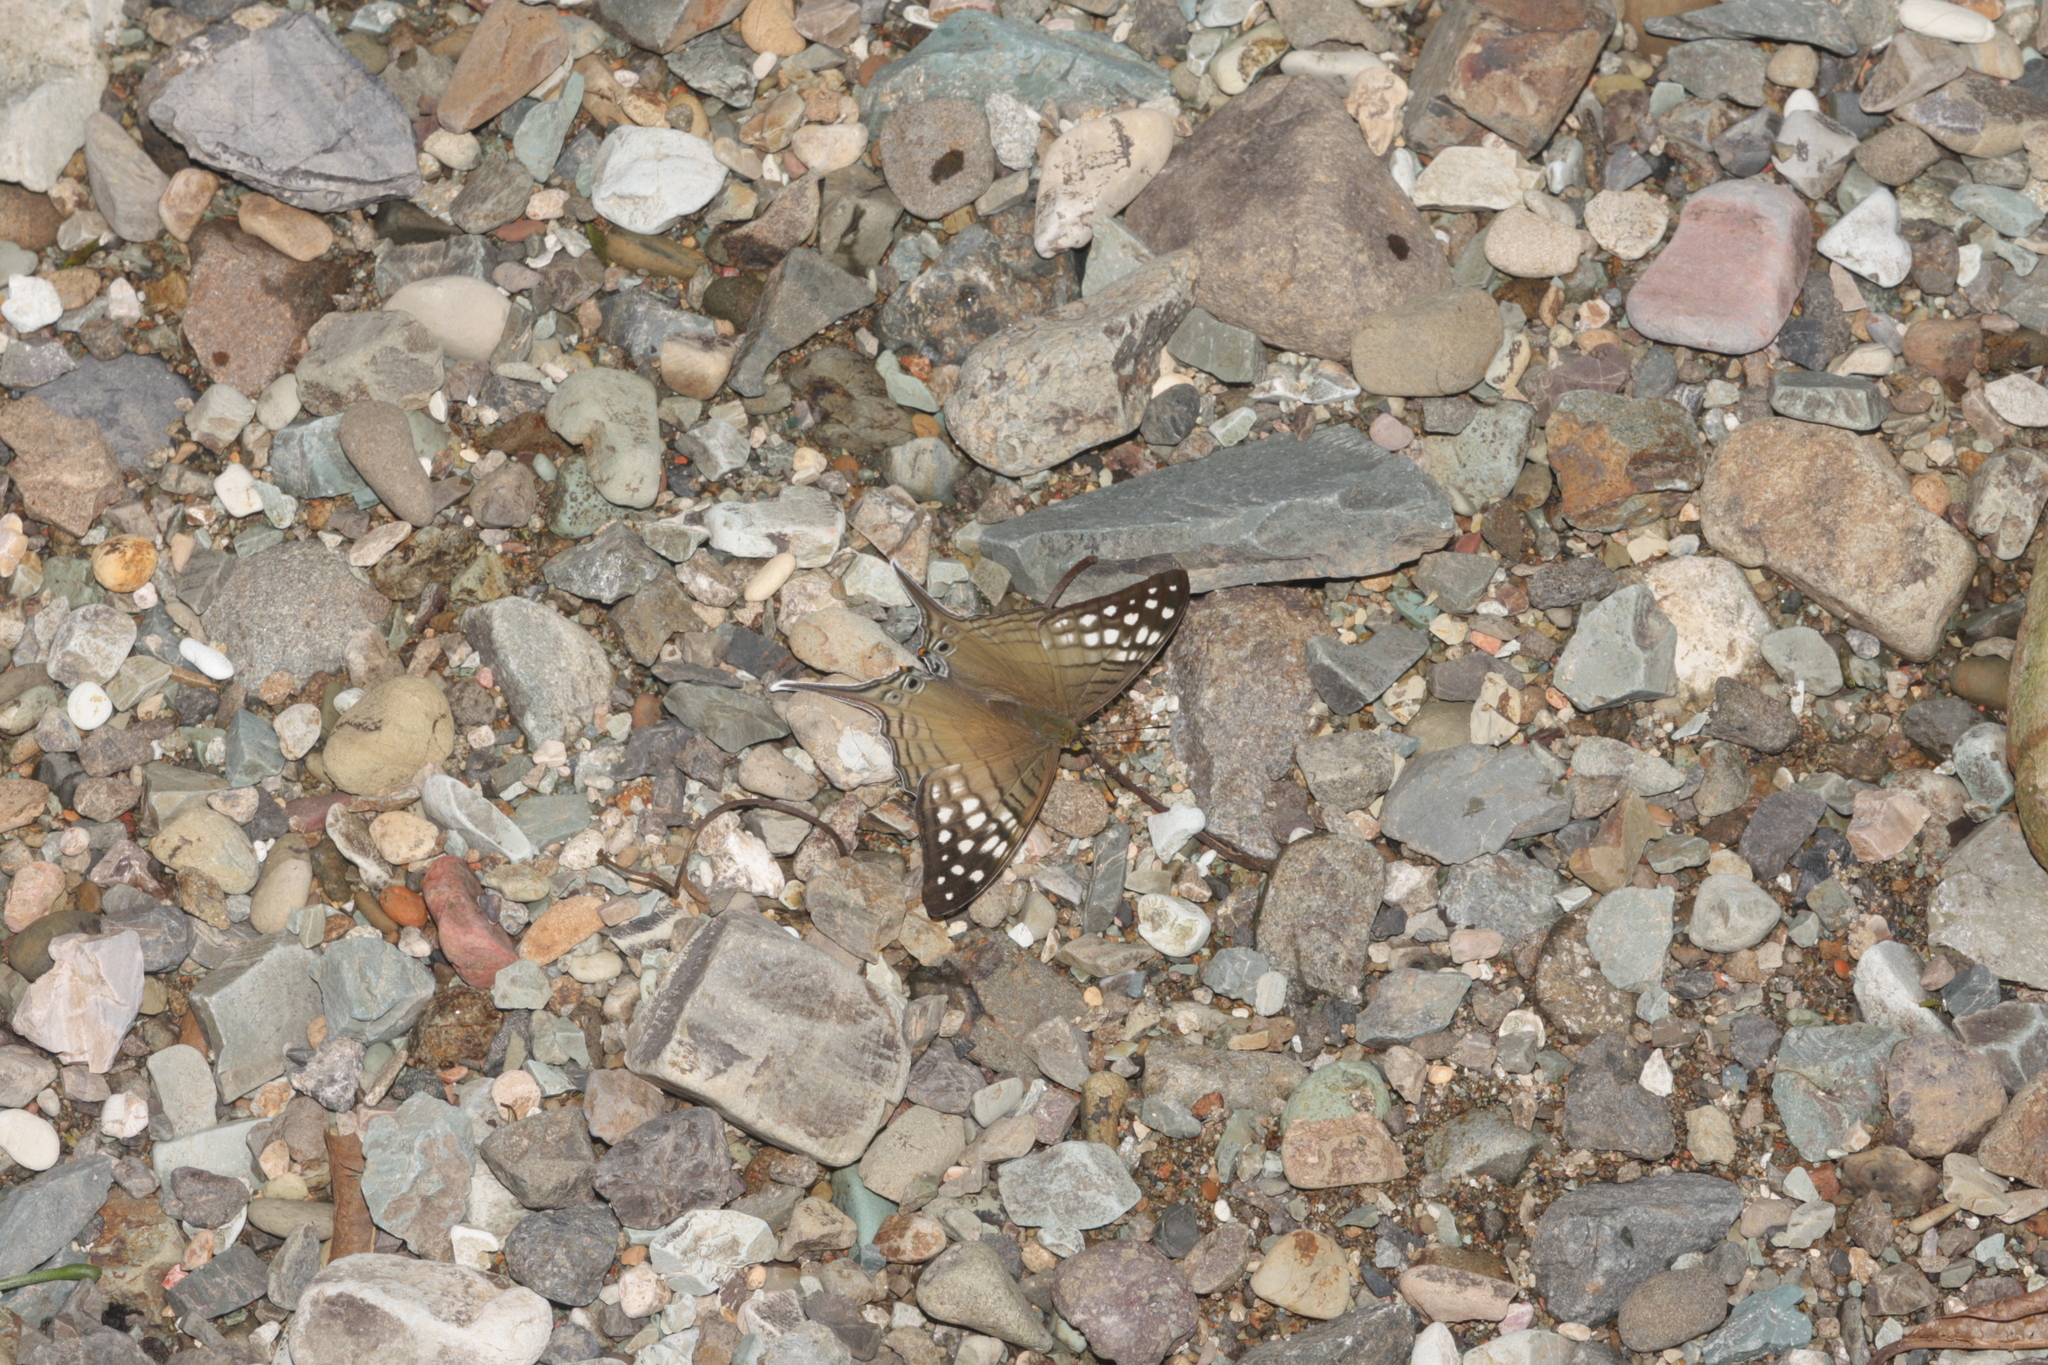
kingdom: Animalia
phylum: Arthropoda
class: Insecta
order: Lepidoptera
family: Nymphalidae
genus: Marpesia
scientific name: Marpesia merops
